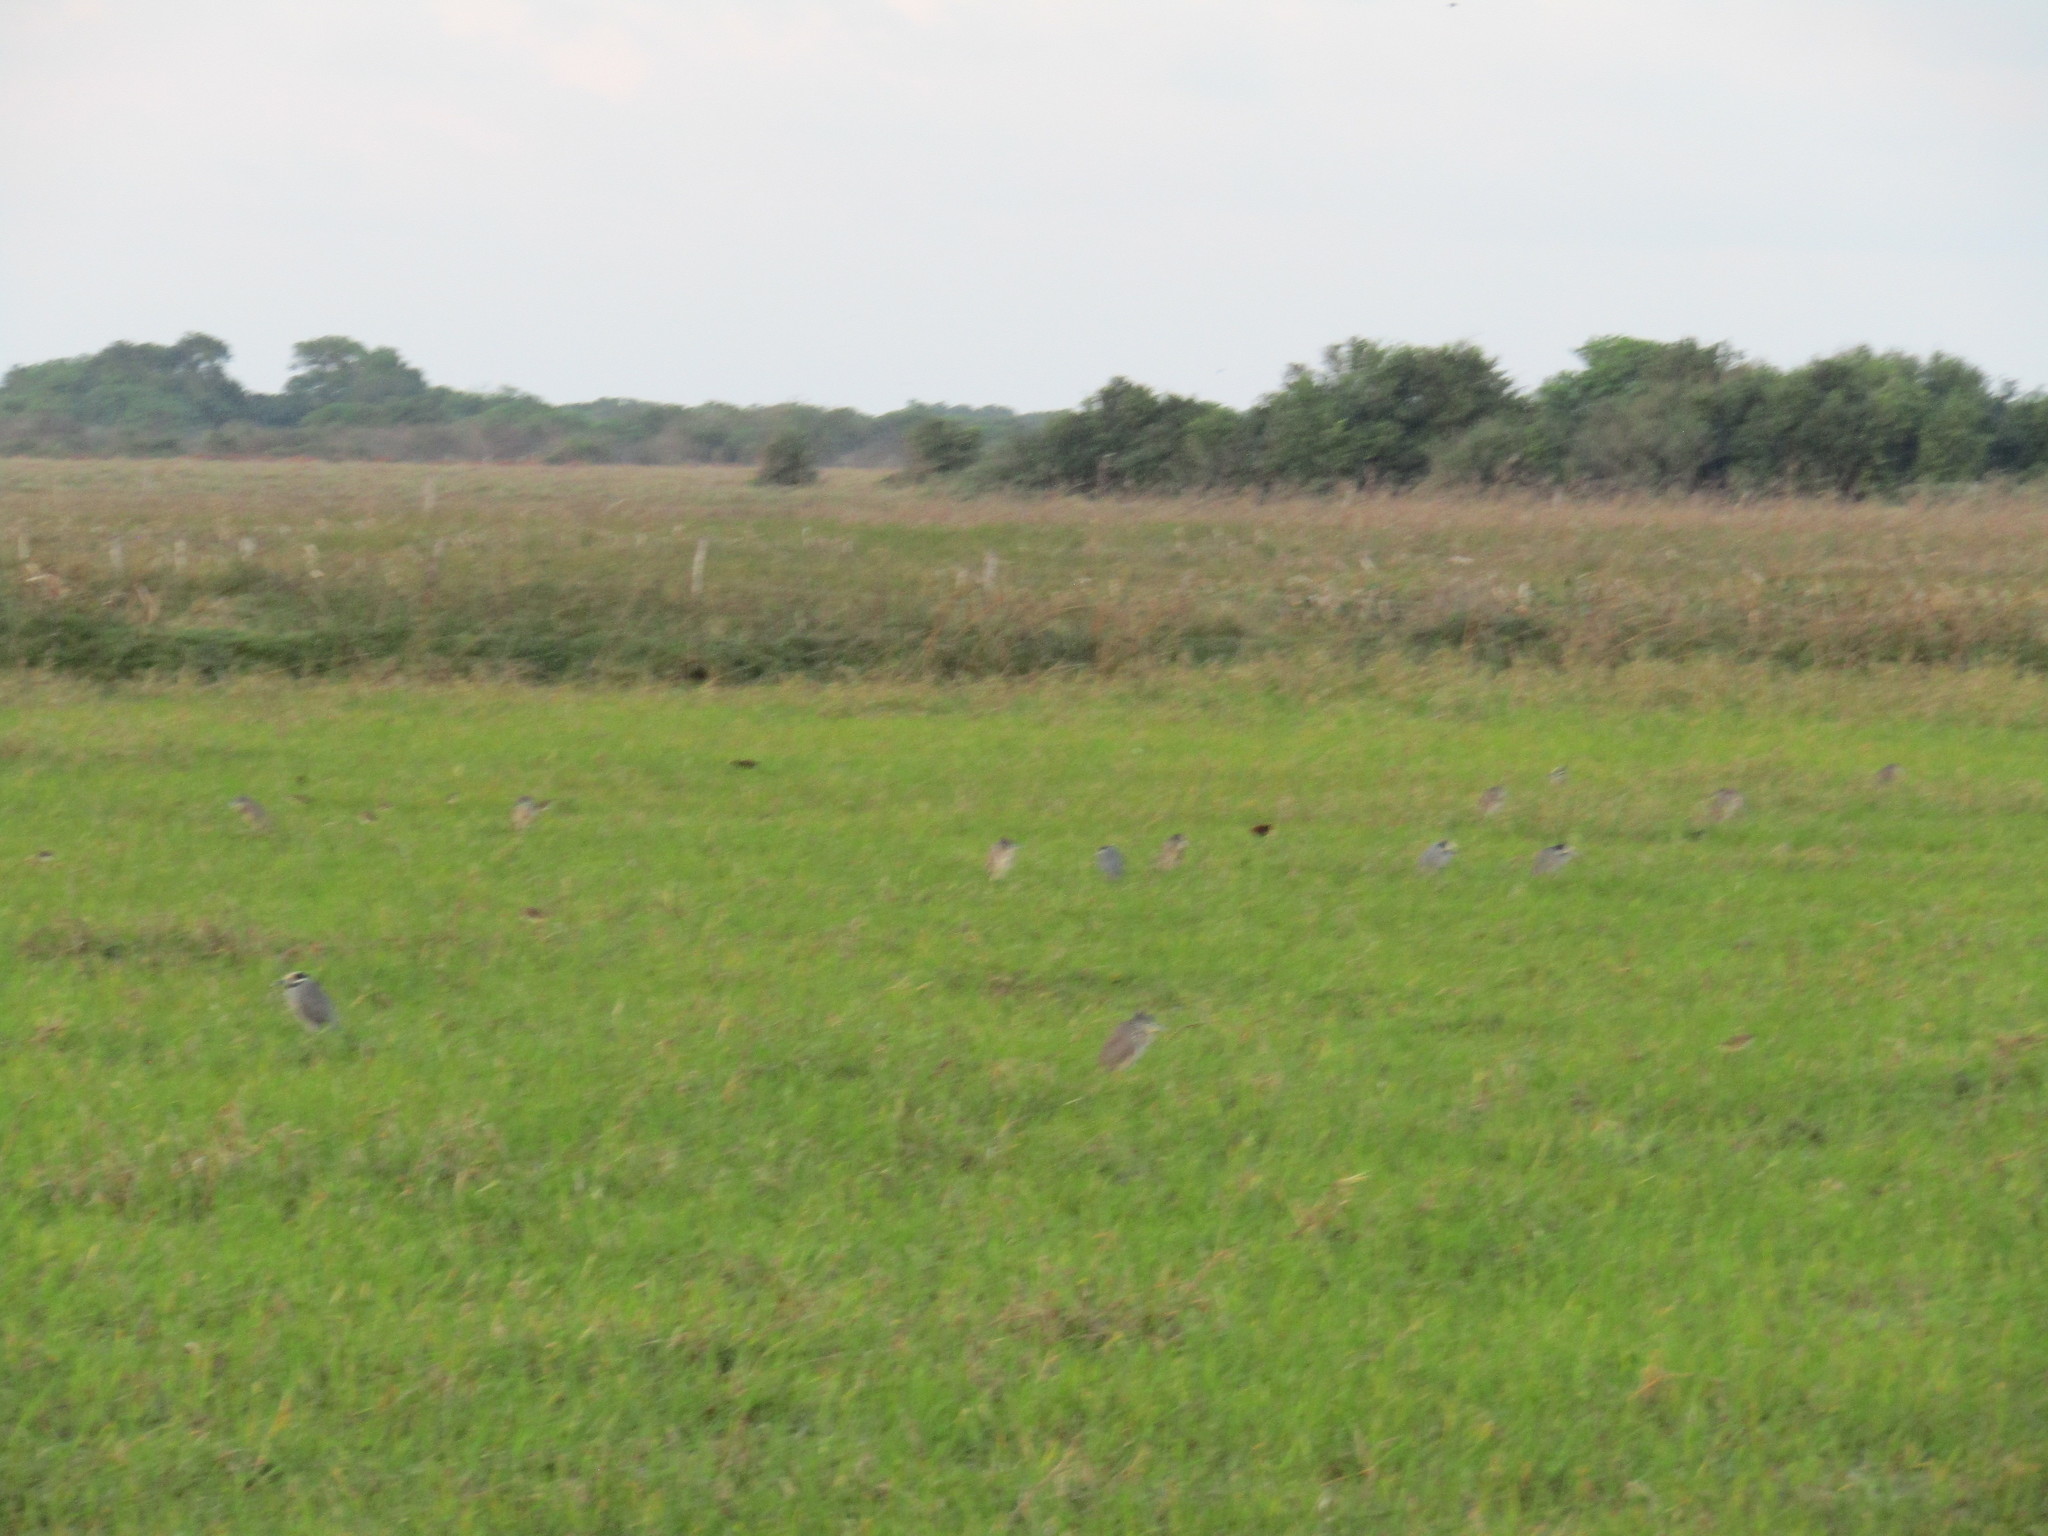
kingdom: Animalia
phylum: Chordata
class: Aves
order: Pelecaniformes
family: Ardeidae
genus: Nyctanassa
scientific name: Nyctanassa violacea
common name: Yellow-crowned night heron
